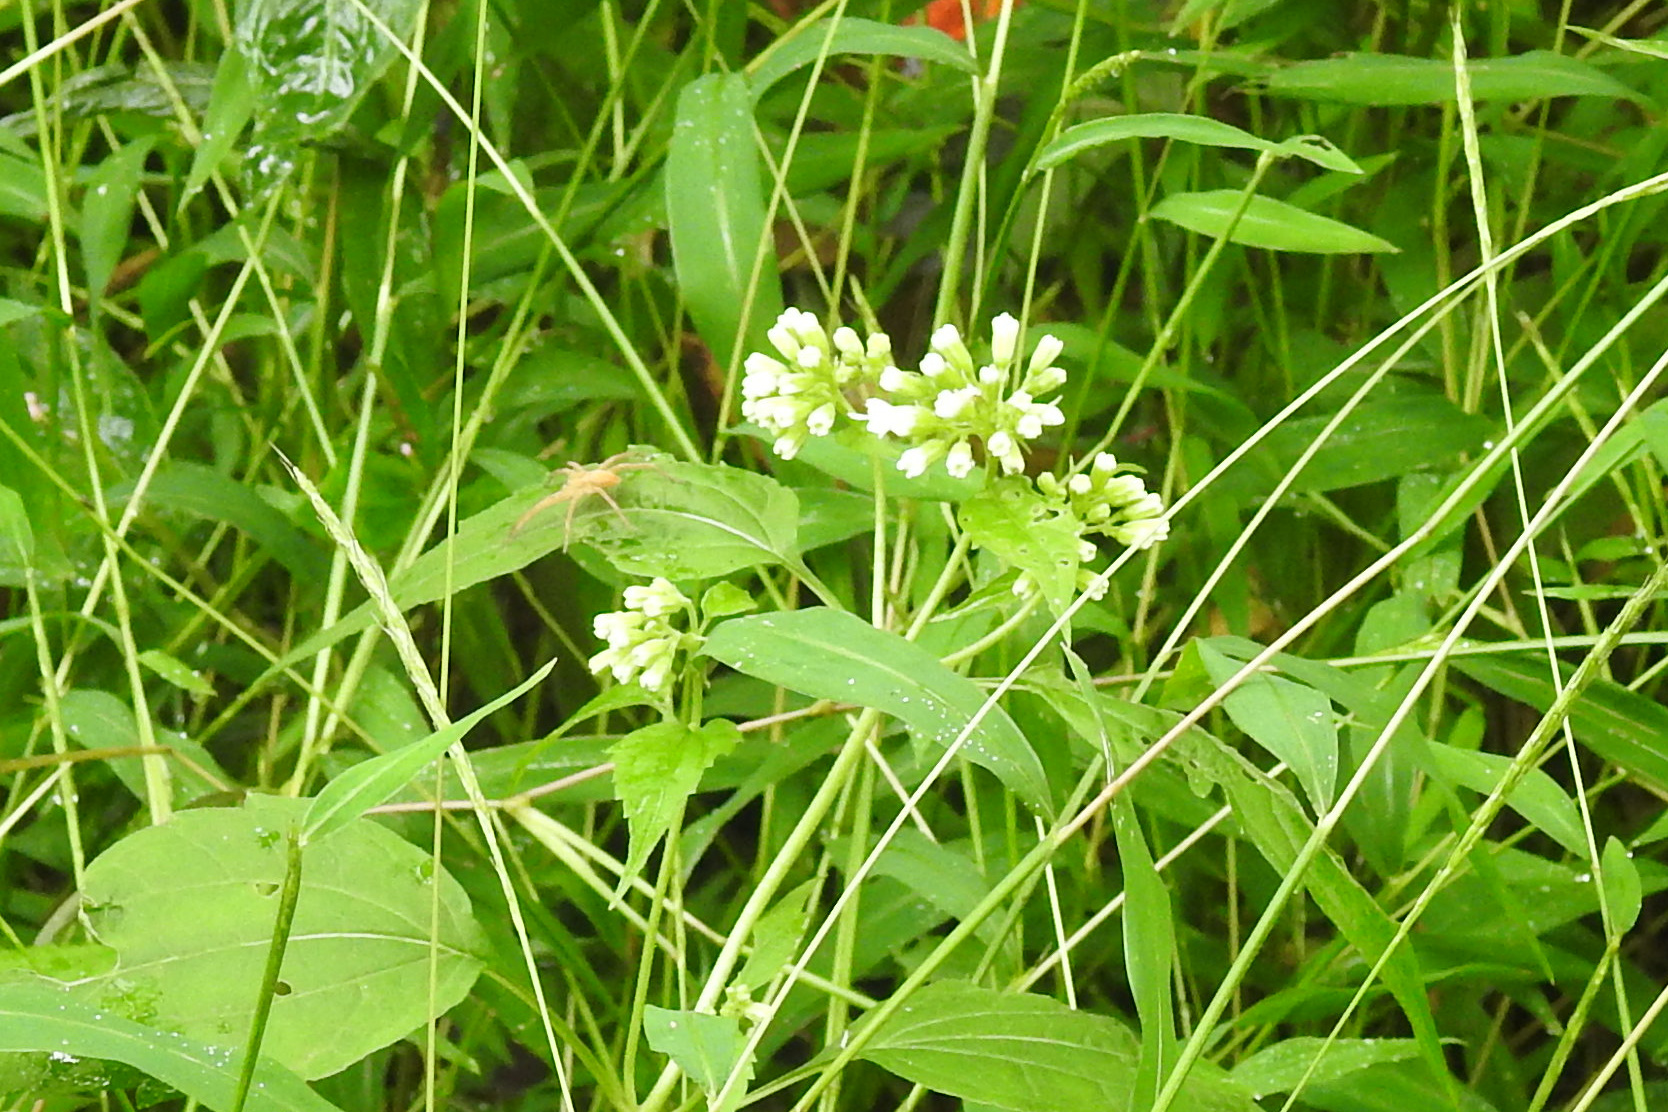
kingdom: Plantae
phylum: Tracheophyta
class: Magnoliopsida
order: Asterales
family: Asteraceae
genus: Ageratina
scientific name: Ageratina altissima
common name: White snakeroot
